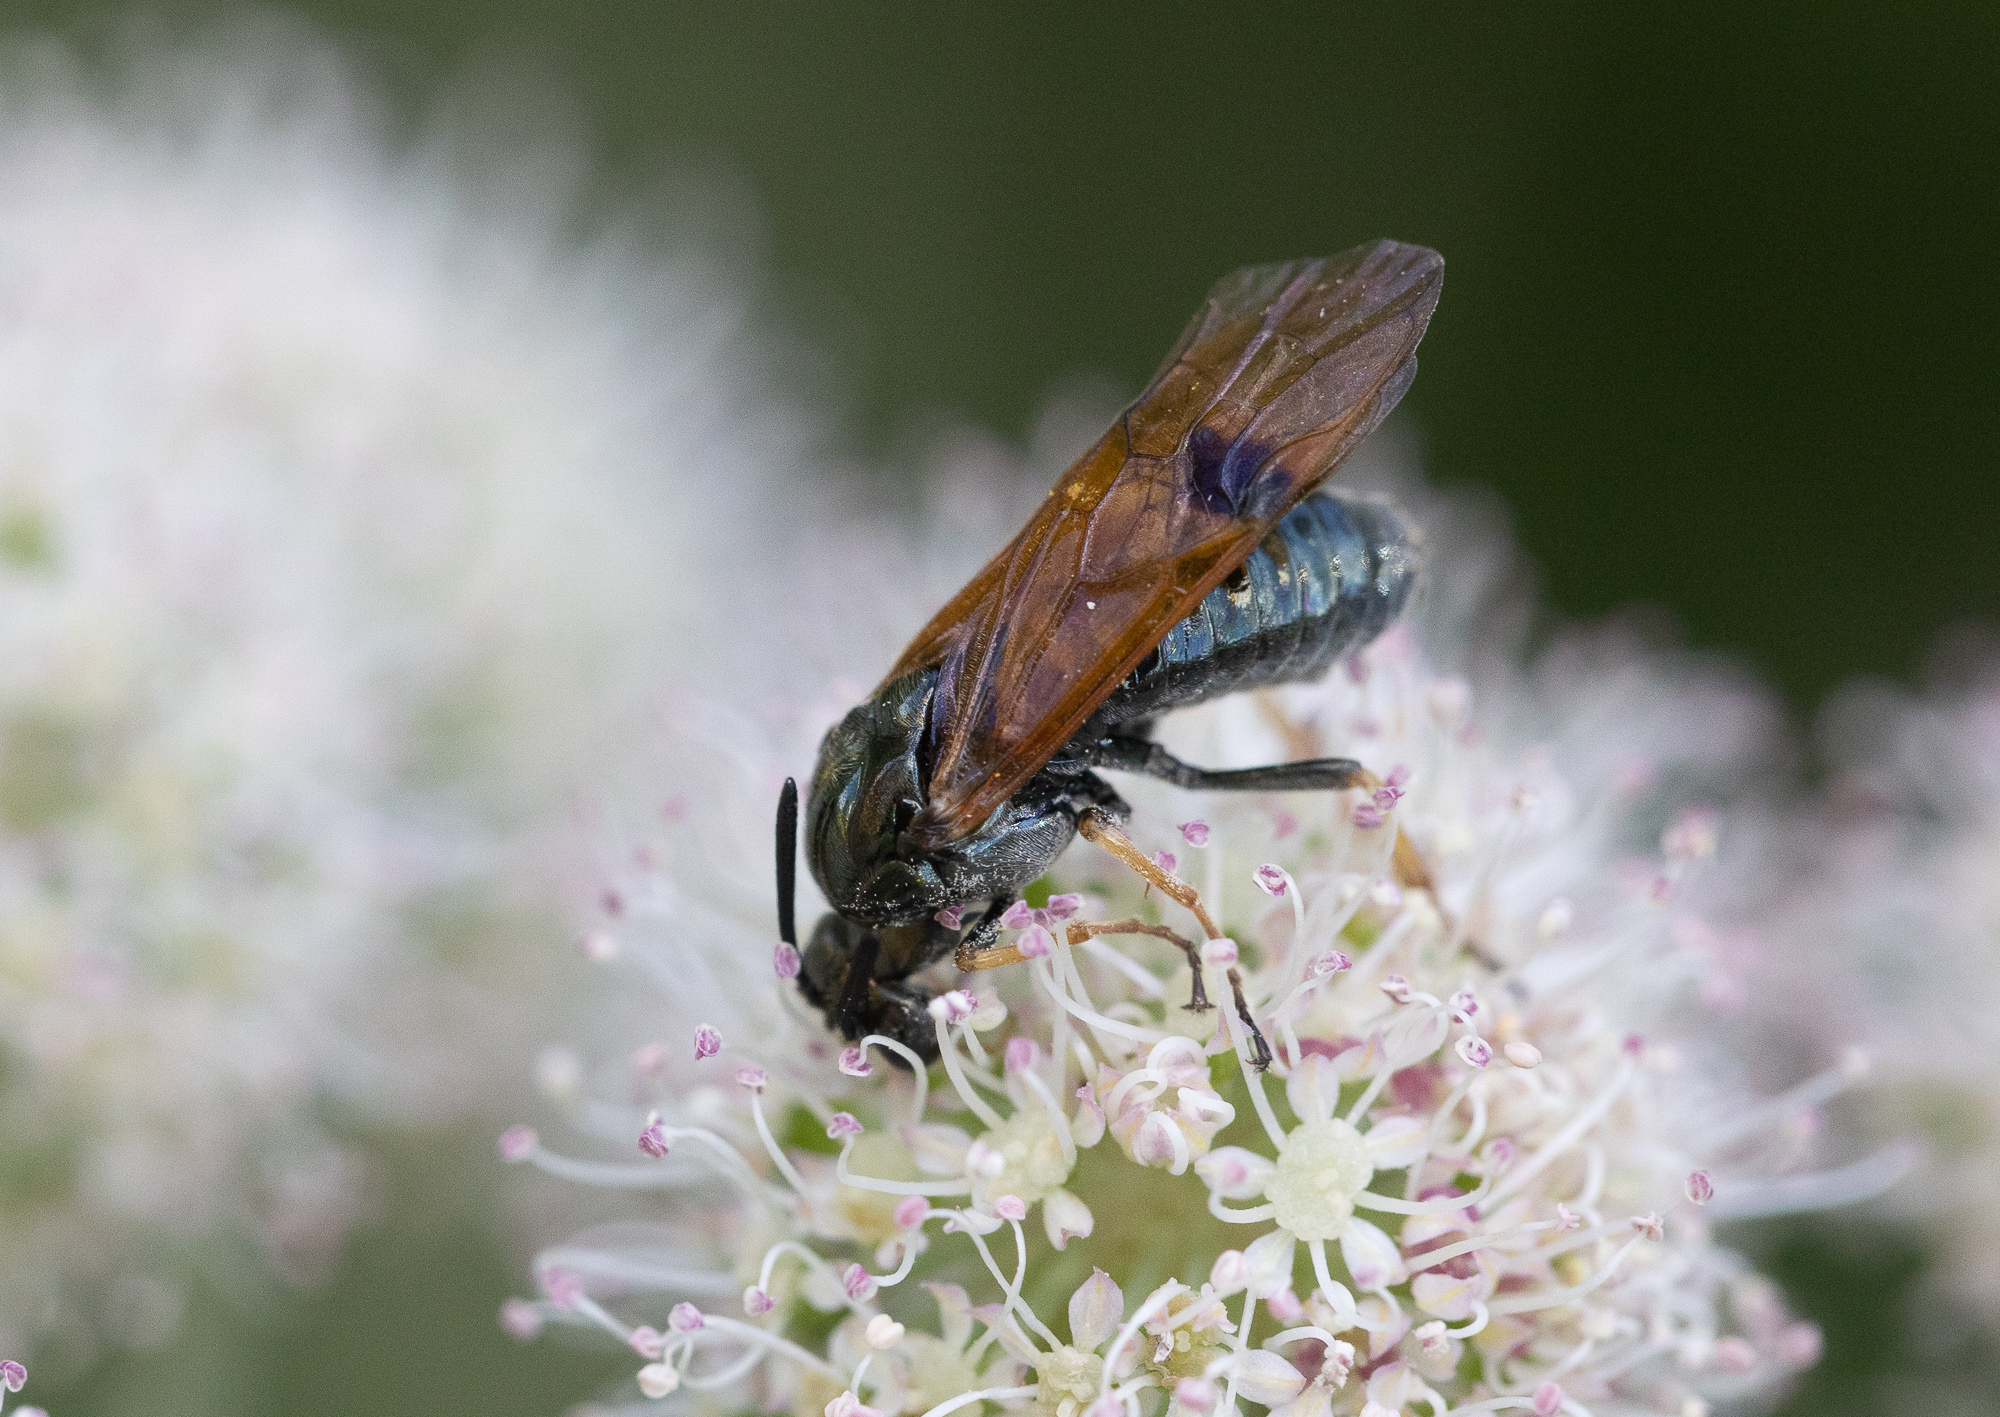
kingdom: Animalia
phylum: Arthropoda
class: Insecta
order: Hymenoptera
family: Argidae
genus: Arge
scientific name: Arge ustulata
